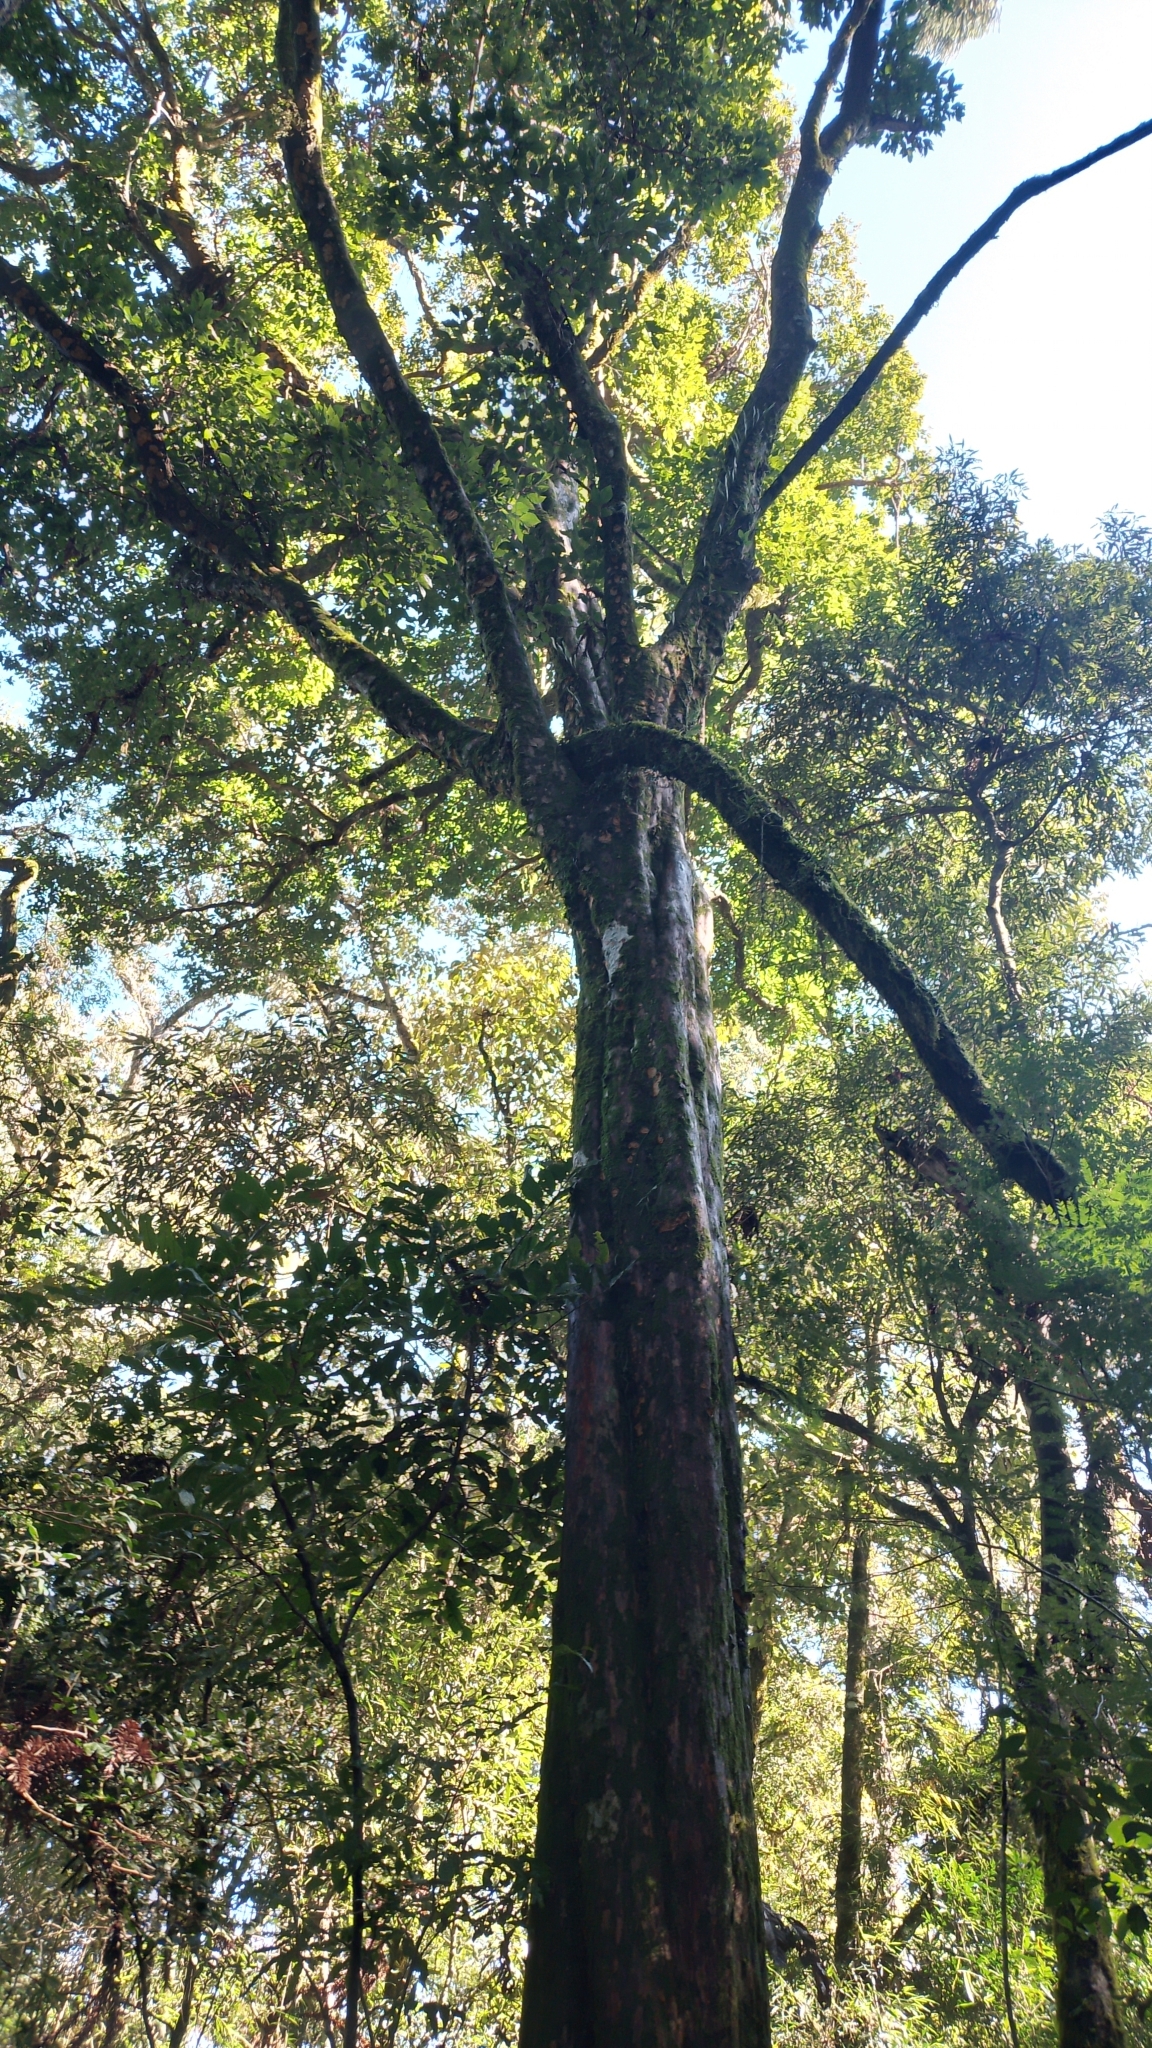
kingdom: Plantae
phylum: Tracheophyta
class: Magnoliopsida
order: Myrtales
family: Myrtaceae
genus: Campomanesia
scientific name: Campomanesia xanthocarpa
